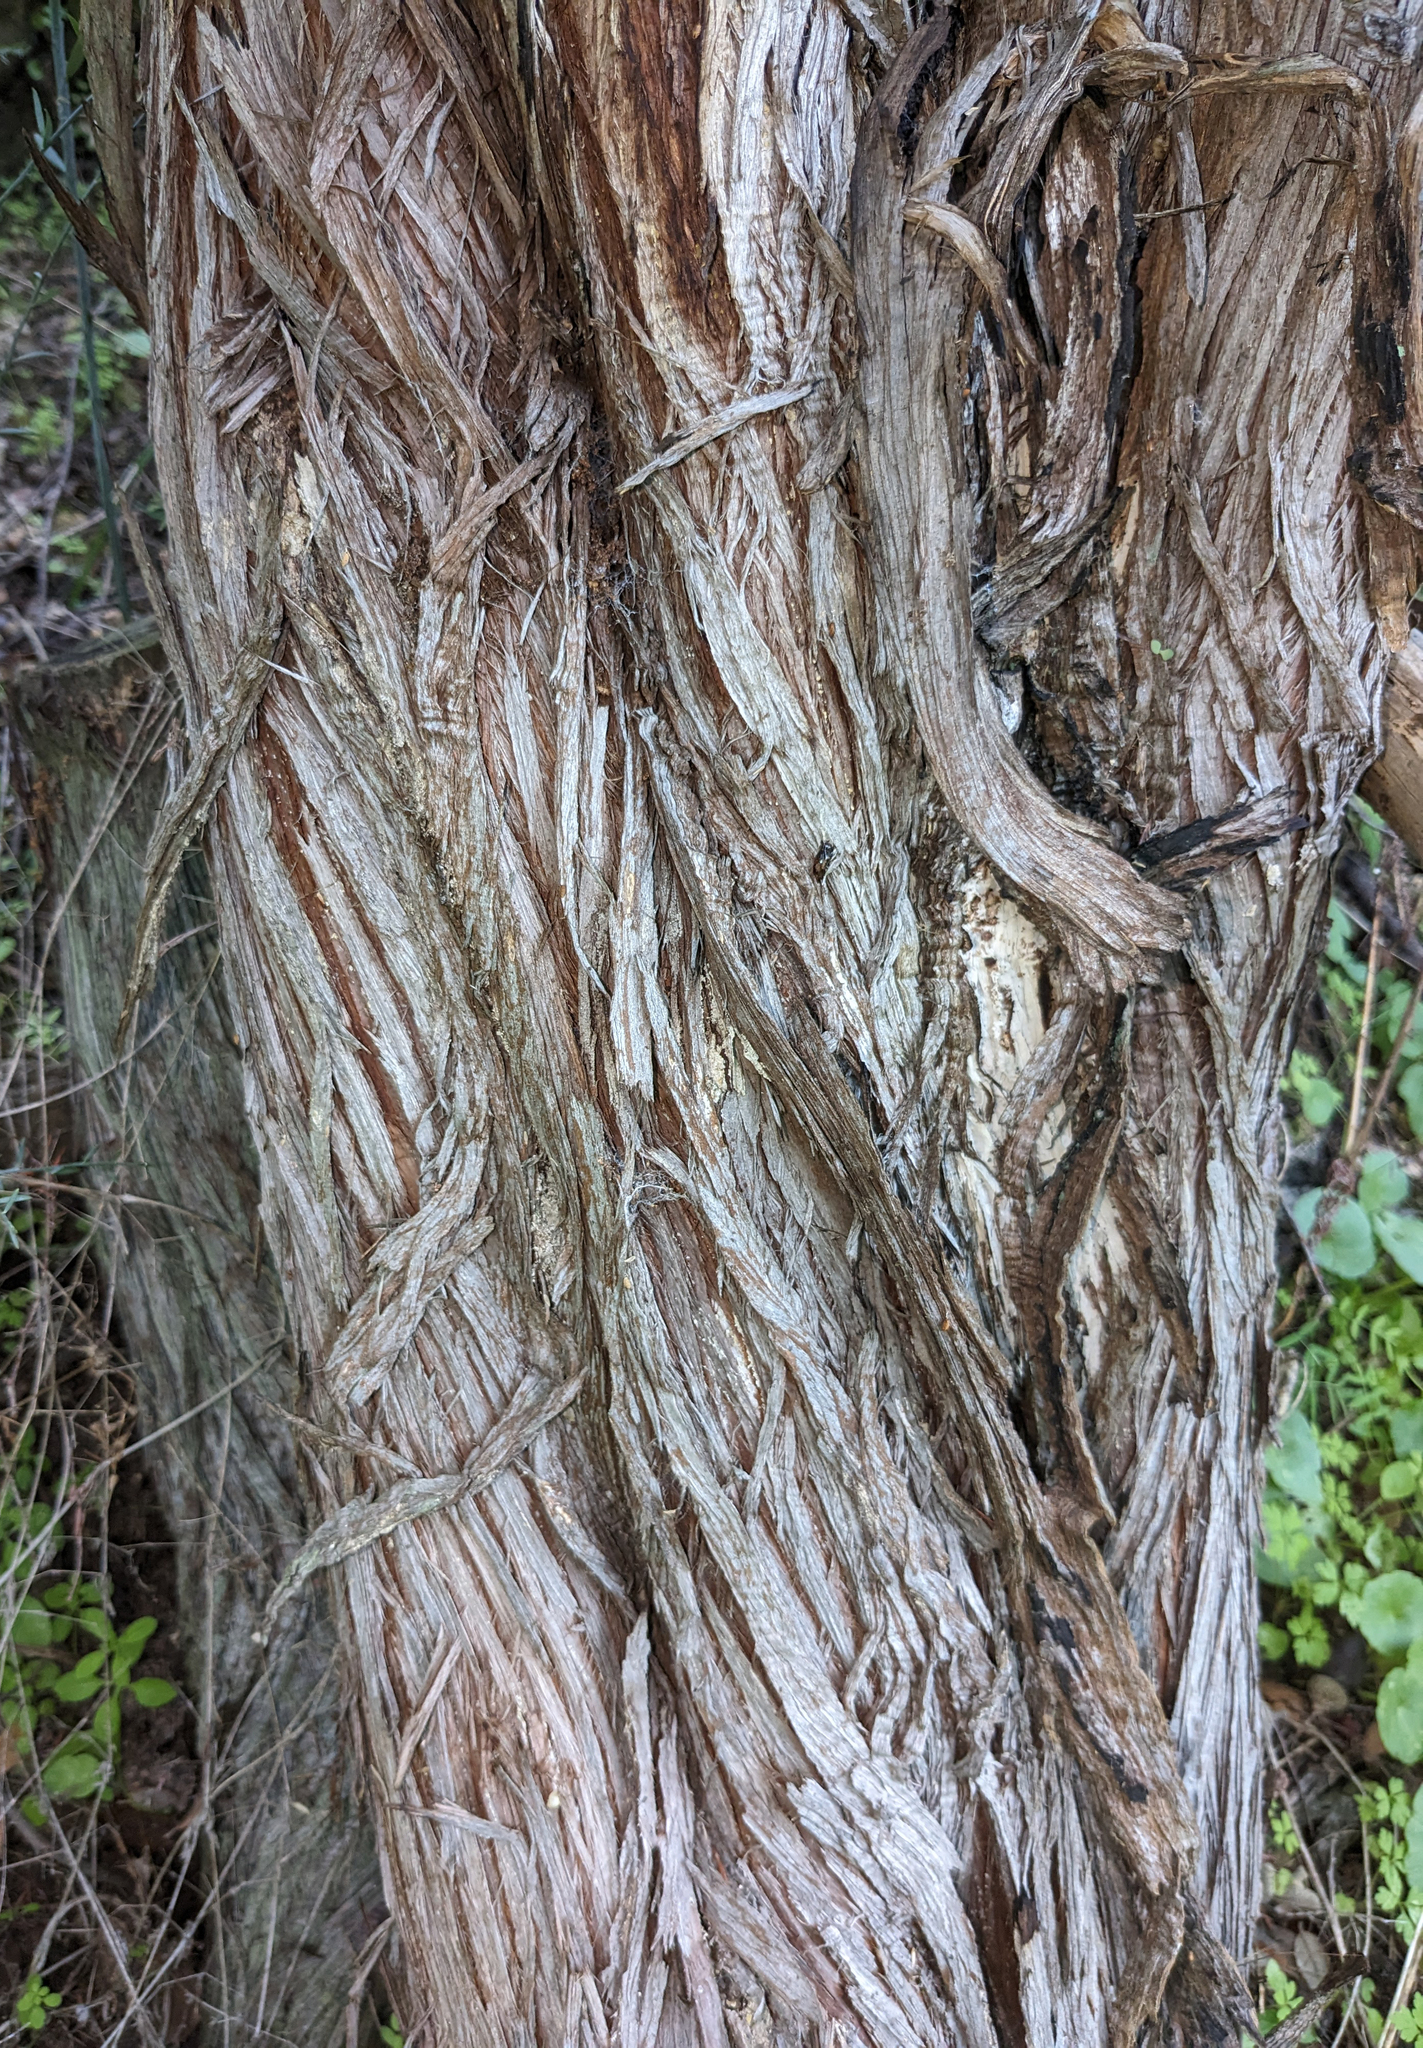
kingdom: Plantae
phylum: Tracheophyta
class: Pinopsida
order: Pinales
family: Cupressaceae
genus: Juniperus
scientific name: Juniperus oxycedrus
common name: Prickly juniper
